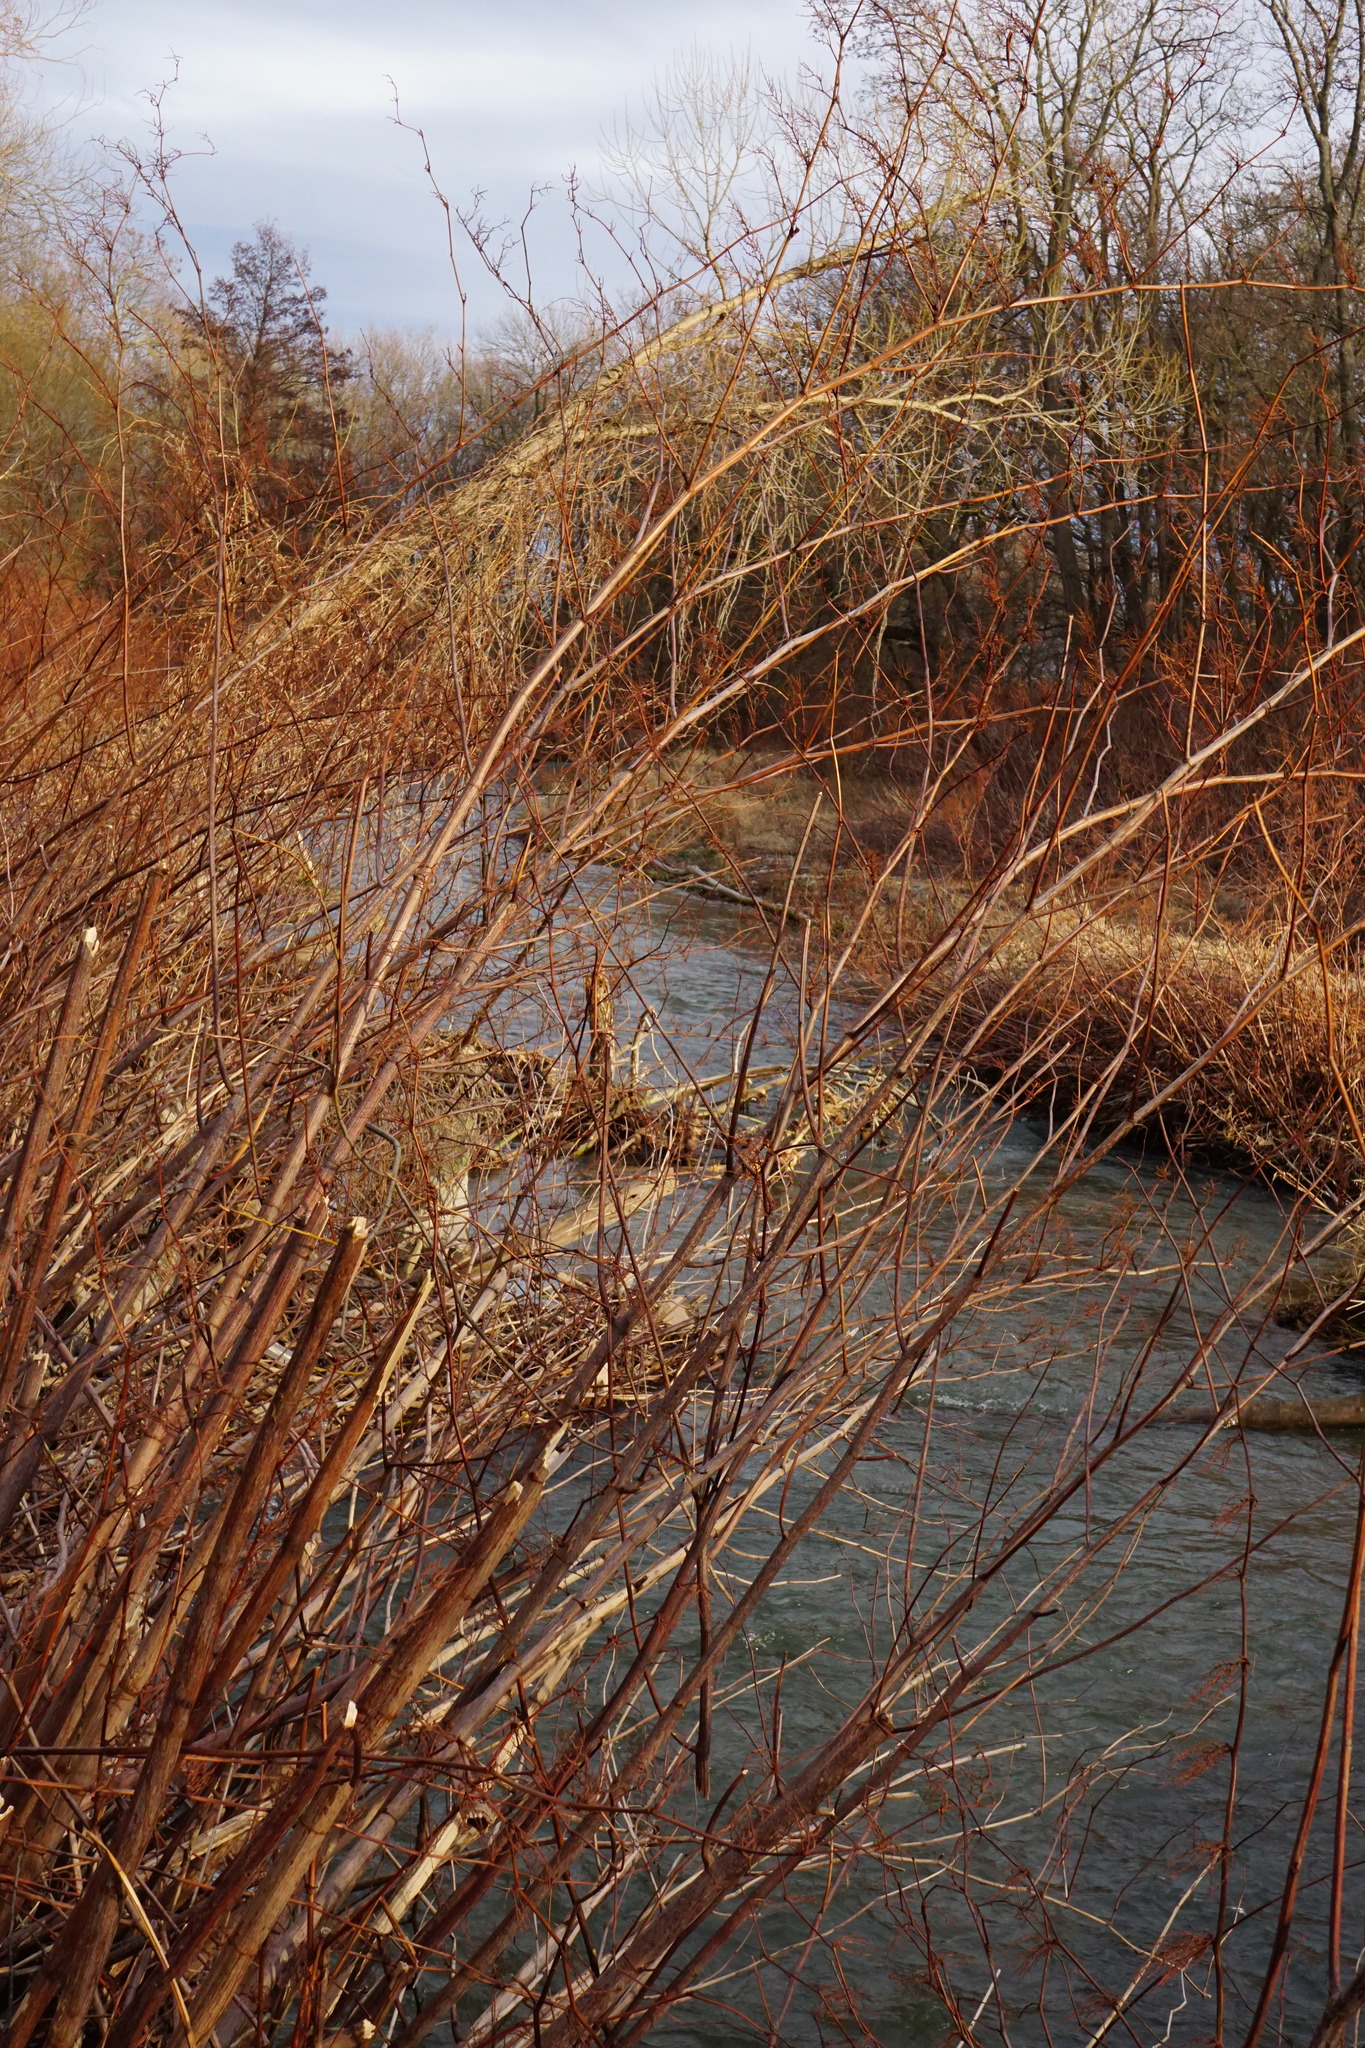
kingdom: Plantae
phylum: Tracheophyta
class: Magnoliopsida
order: Caryophyllales
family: Polygonaceae
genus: Reynoutria
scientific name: Reynoutria bohemica
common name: Bohemian knotweed
